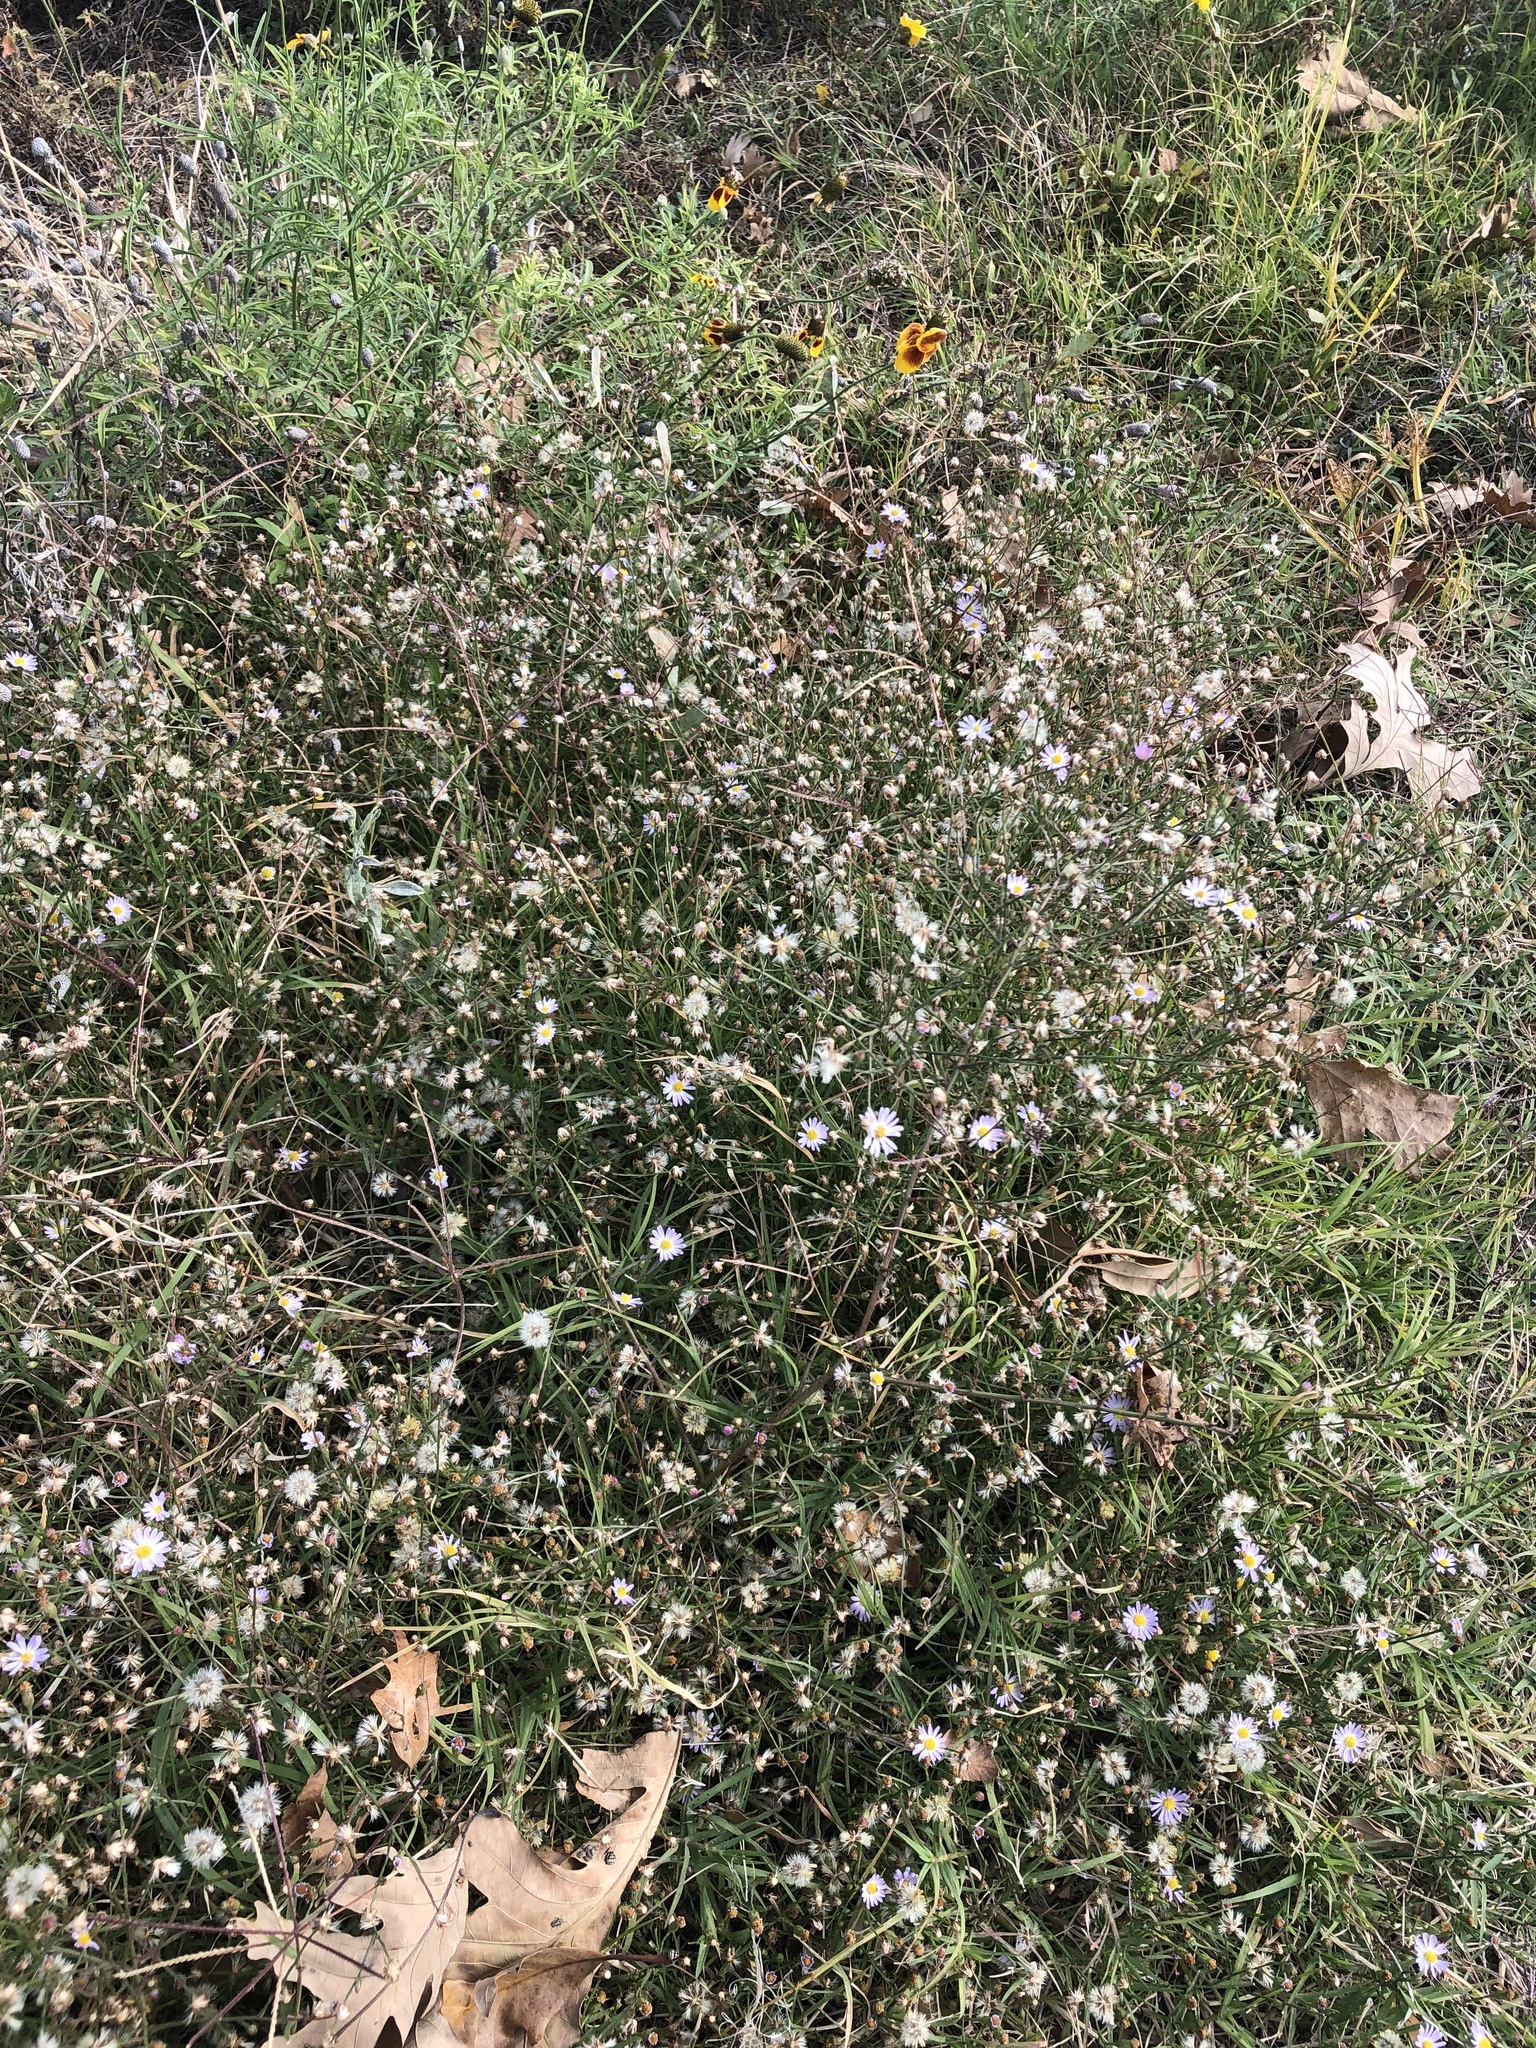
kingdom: Plantae
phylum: Tracheophyta
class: Magnoliopsida
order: Asterales
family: Asteraceae
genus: Symphyotrichum
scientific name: Symphyotrichum divaricatum
